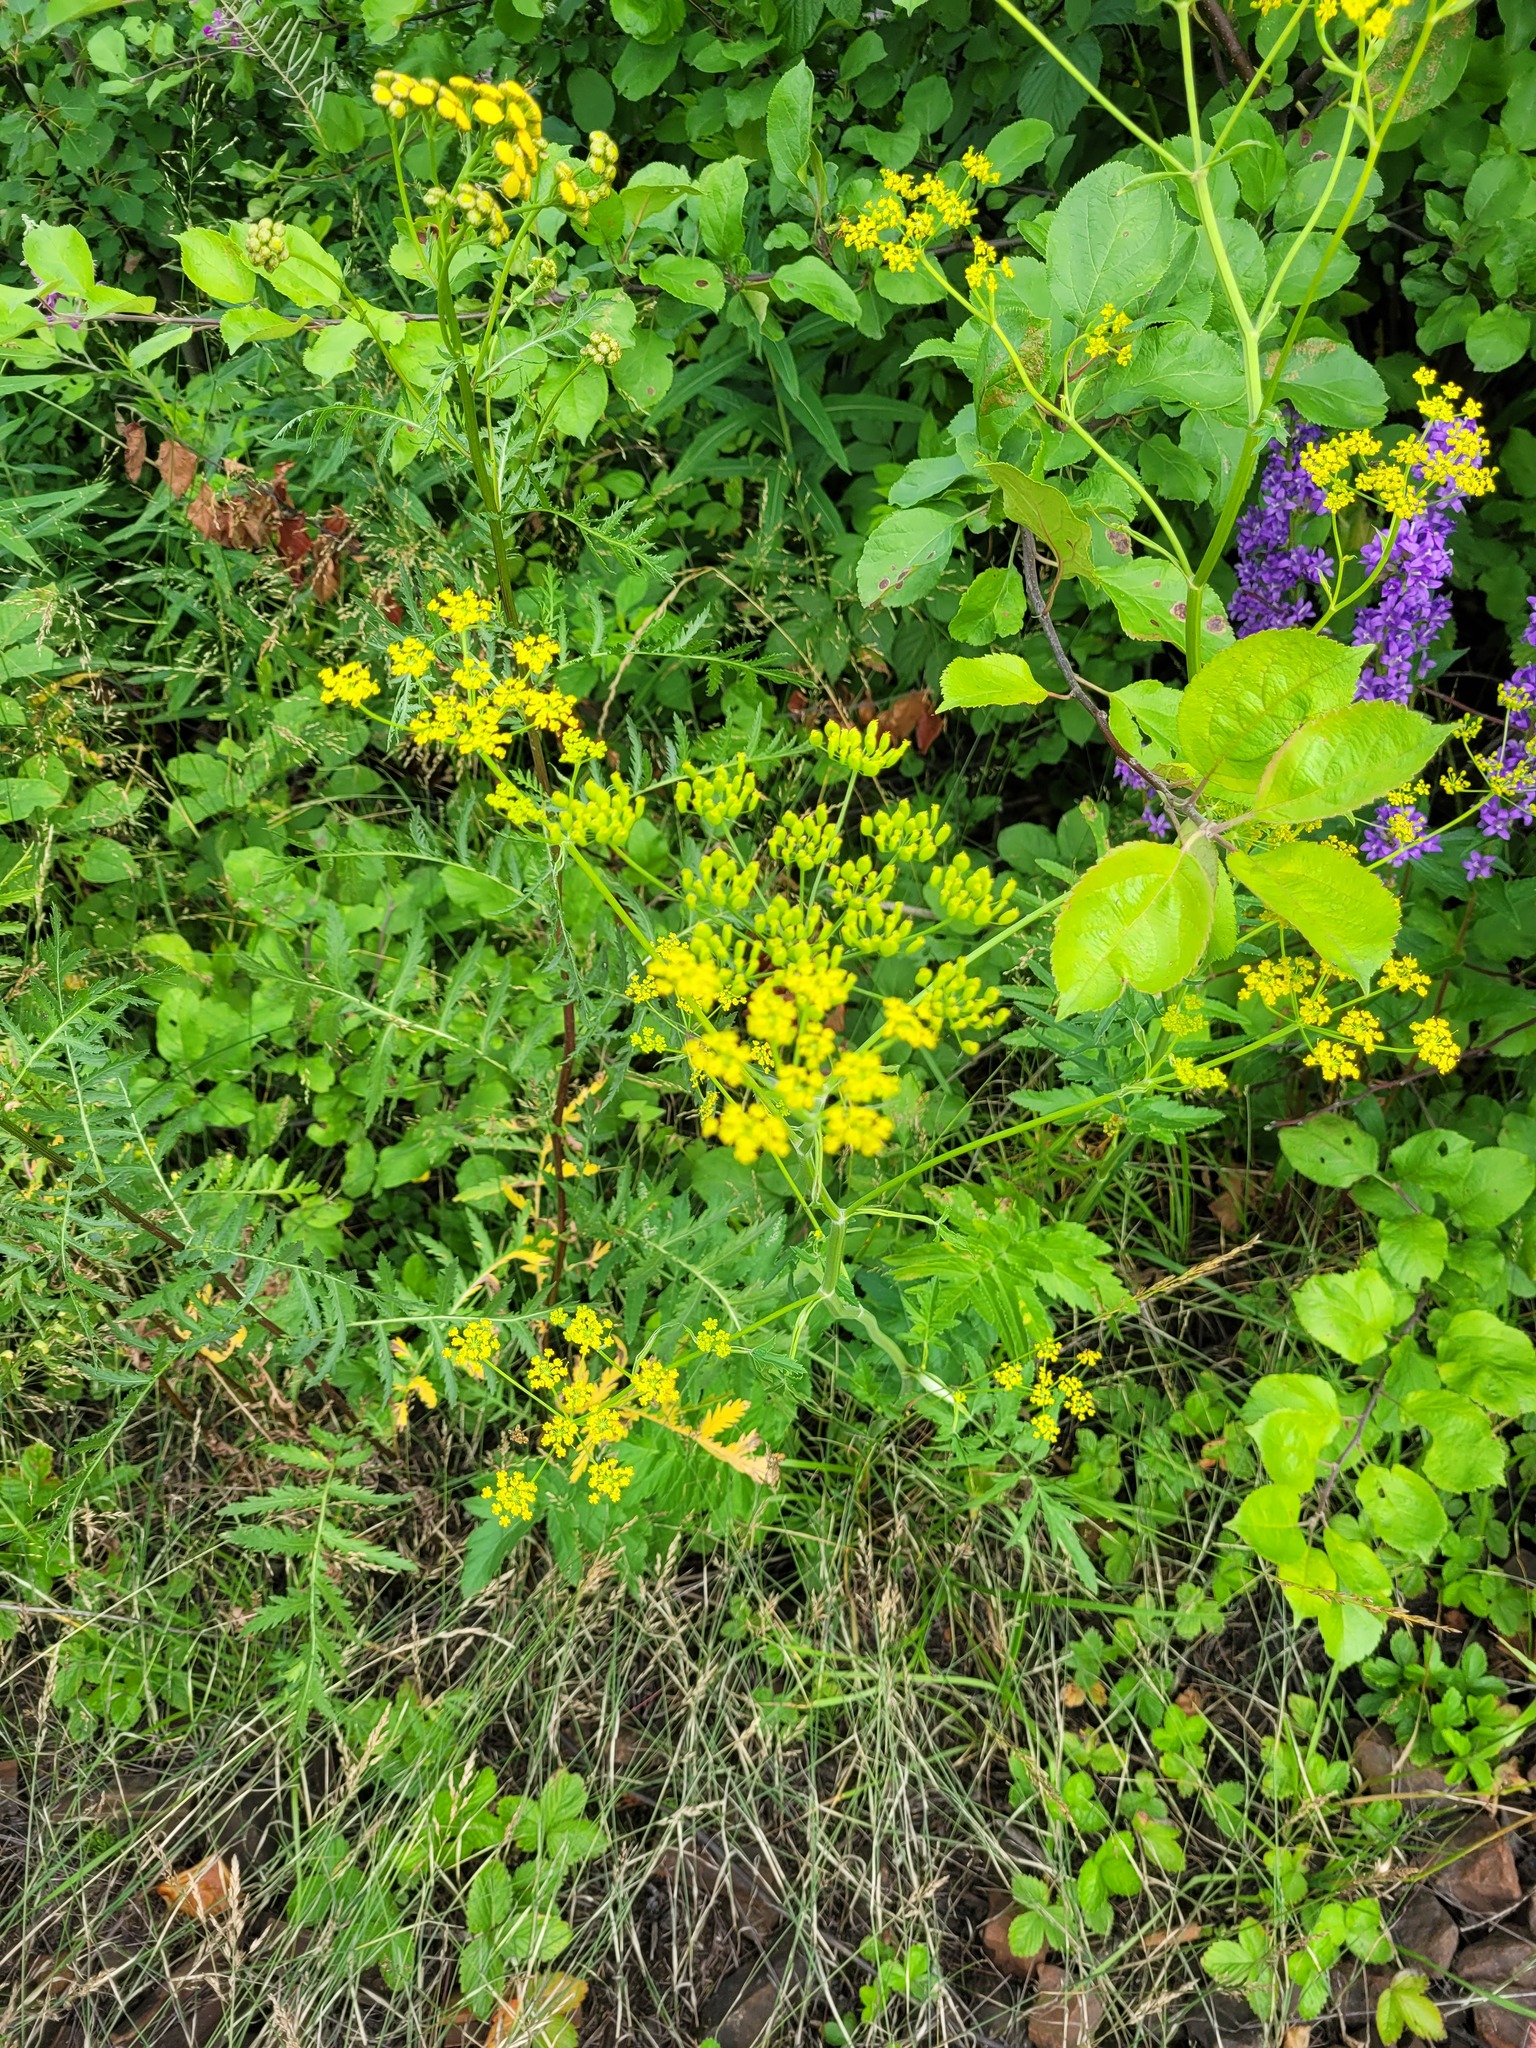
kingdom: Plantae
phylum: Tracheophyta
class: Magnoliopsida
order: Apiales
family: Apiaceae
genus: Pastinaca
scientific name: Pastinaca sativa
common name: Wild parsnip
